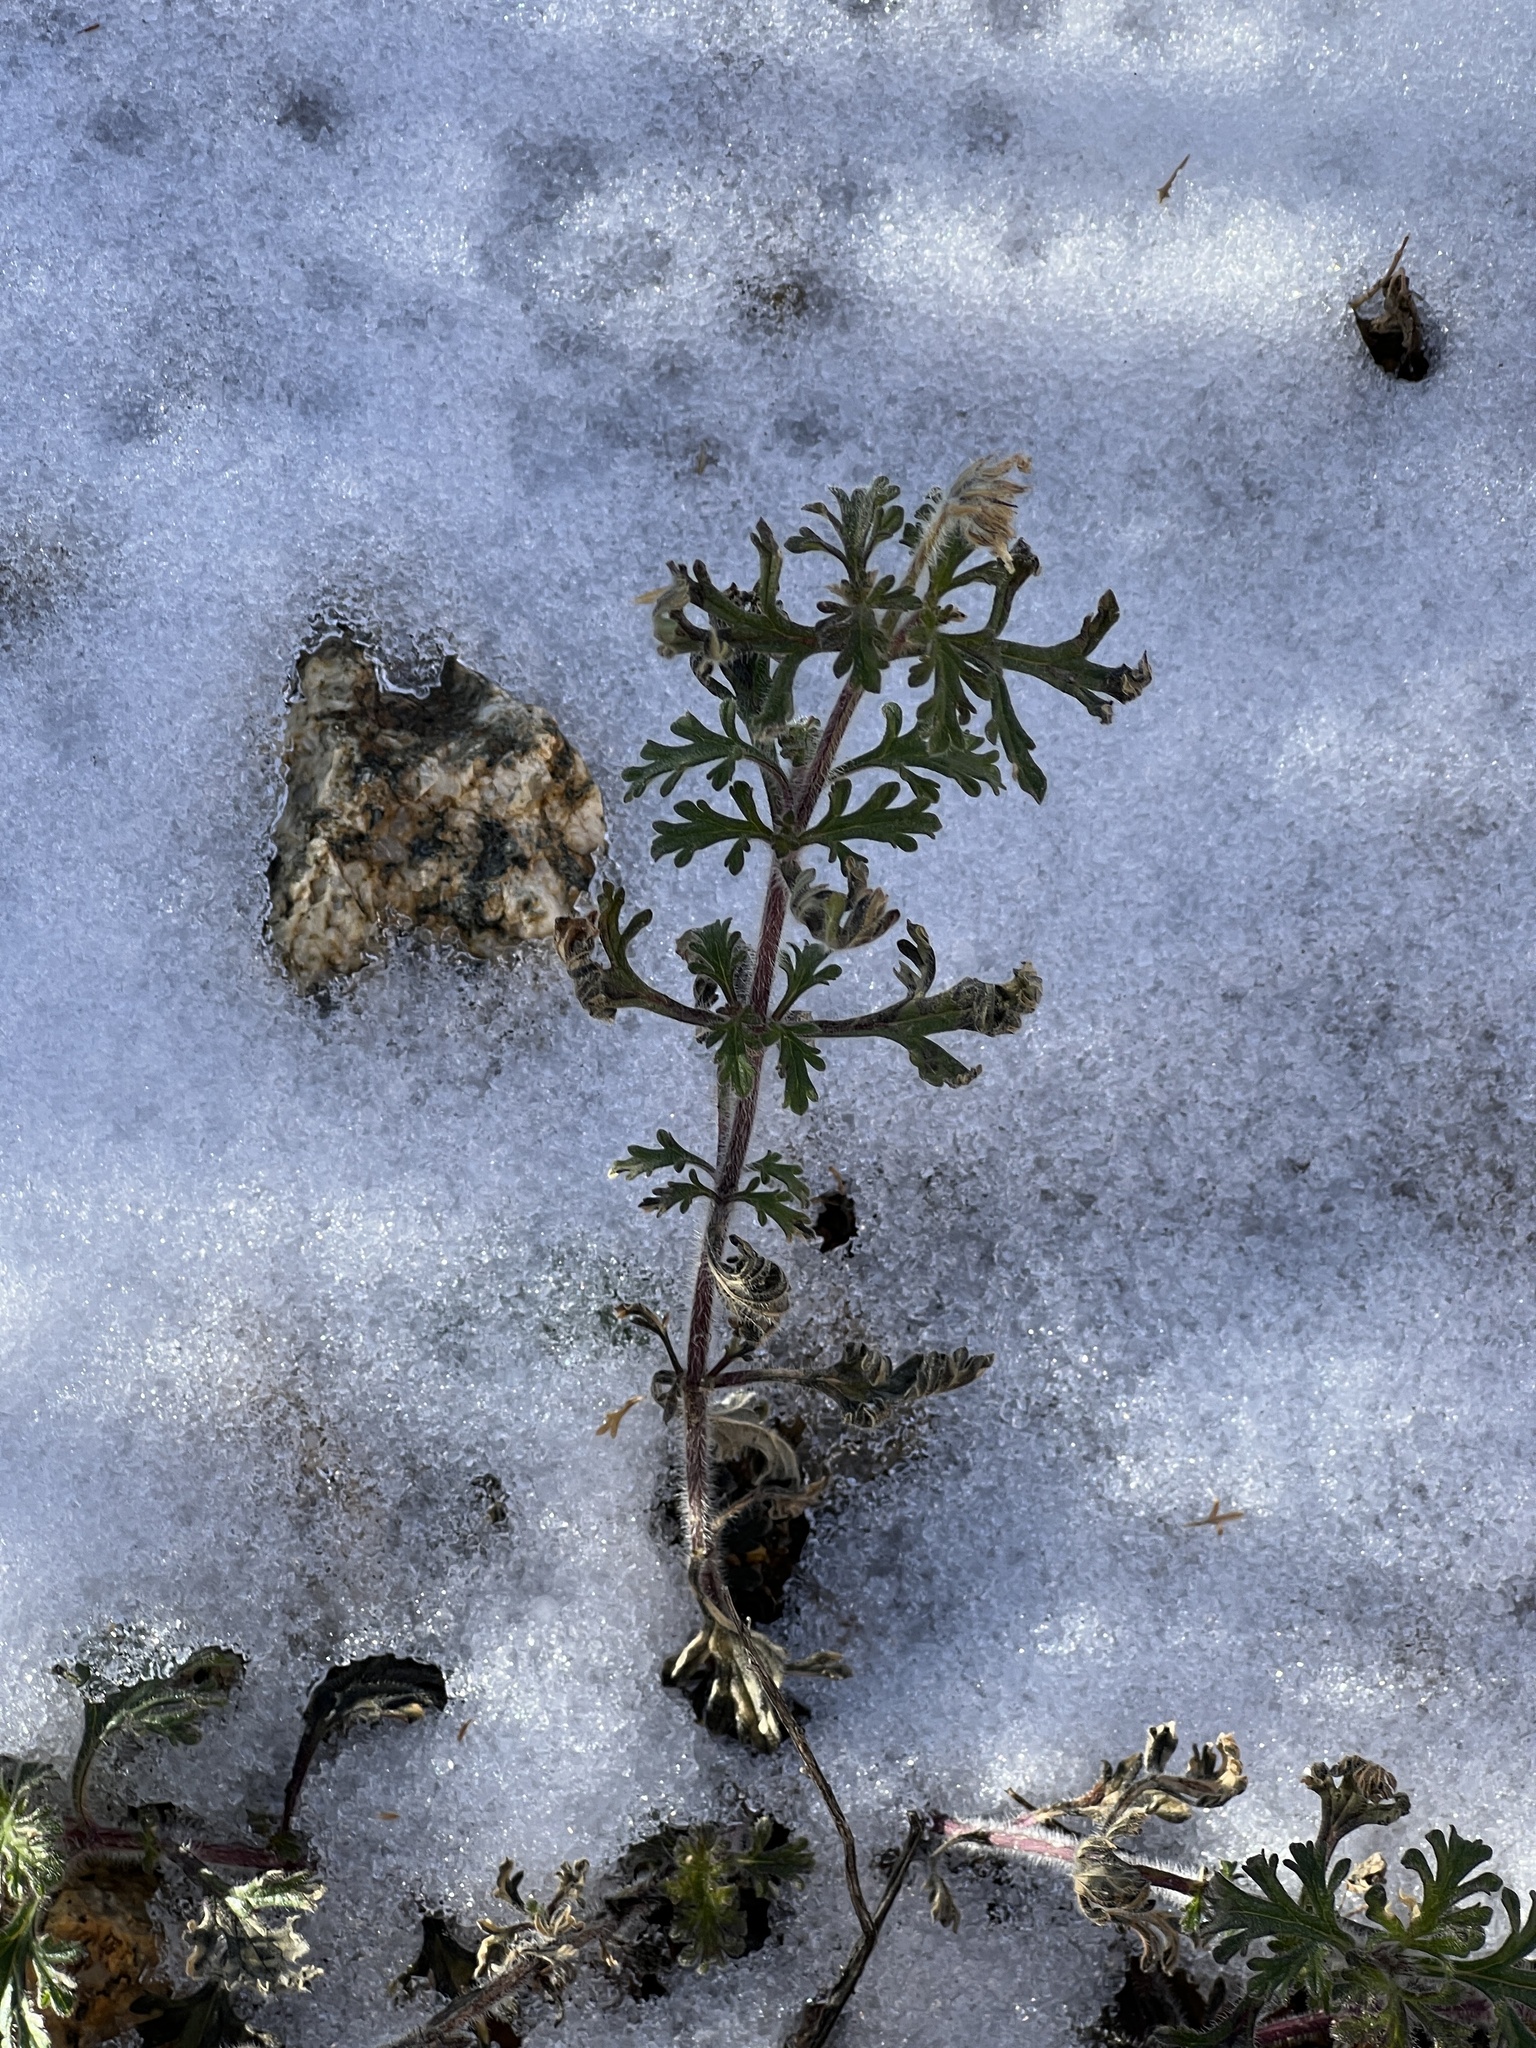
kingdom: Plantae
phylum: Tracheophyta
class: Magnoliopsida
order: Lamiales
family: Verbenaceae
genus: Verbena
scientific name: Verbena gooddingii
